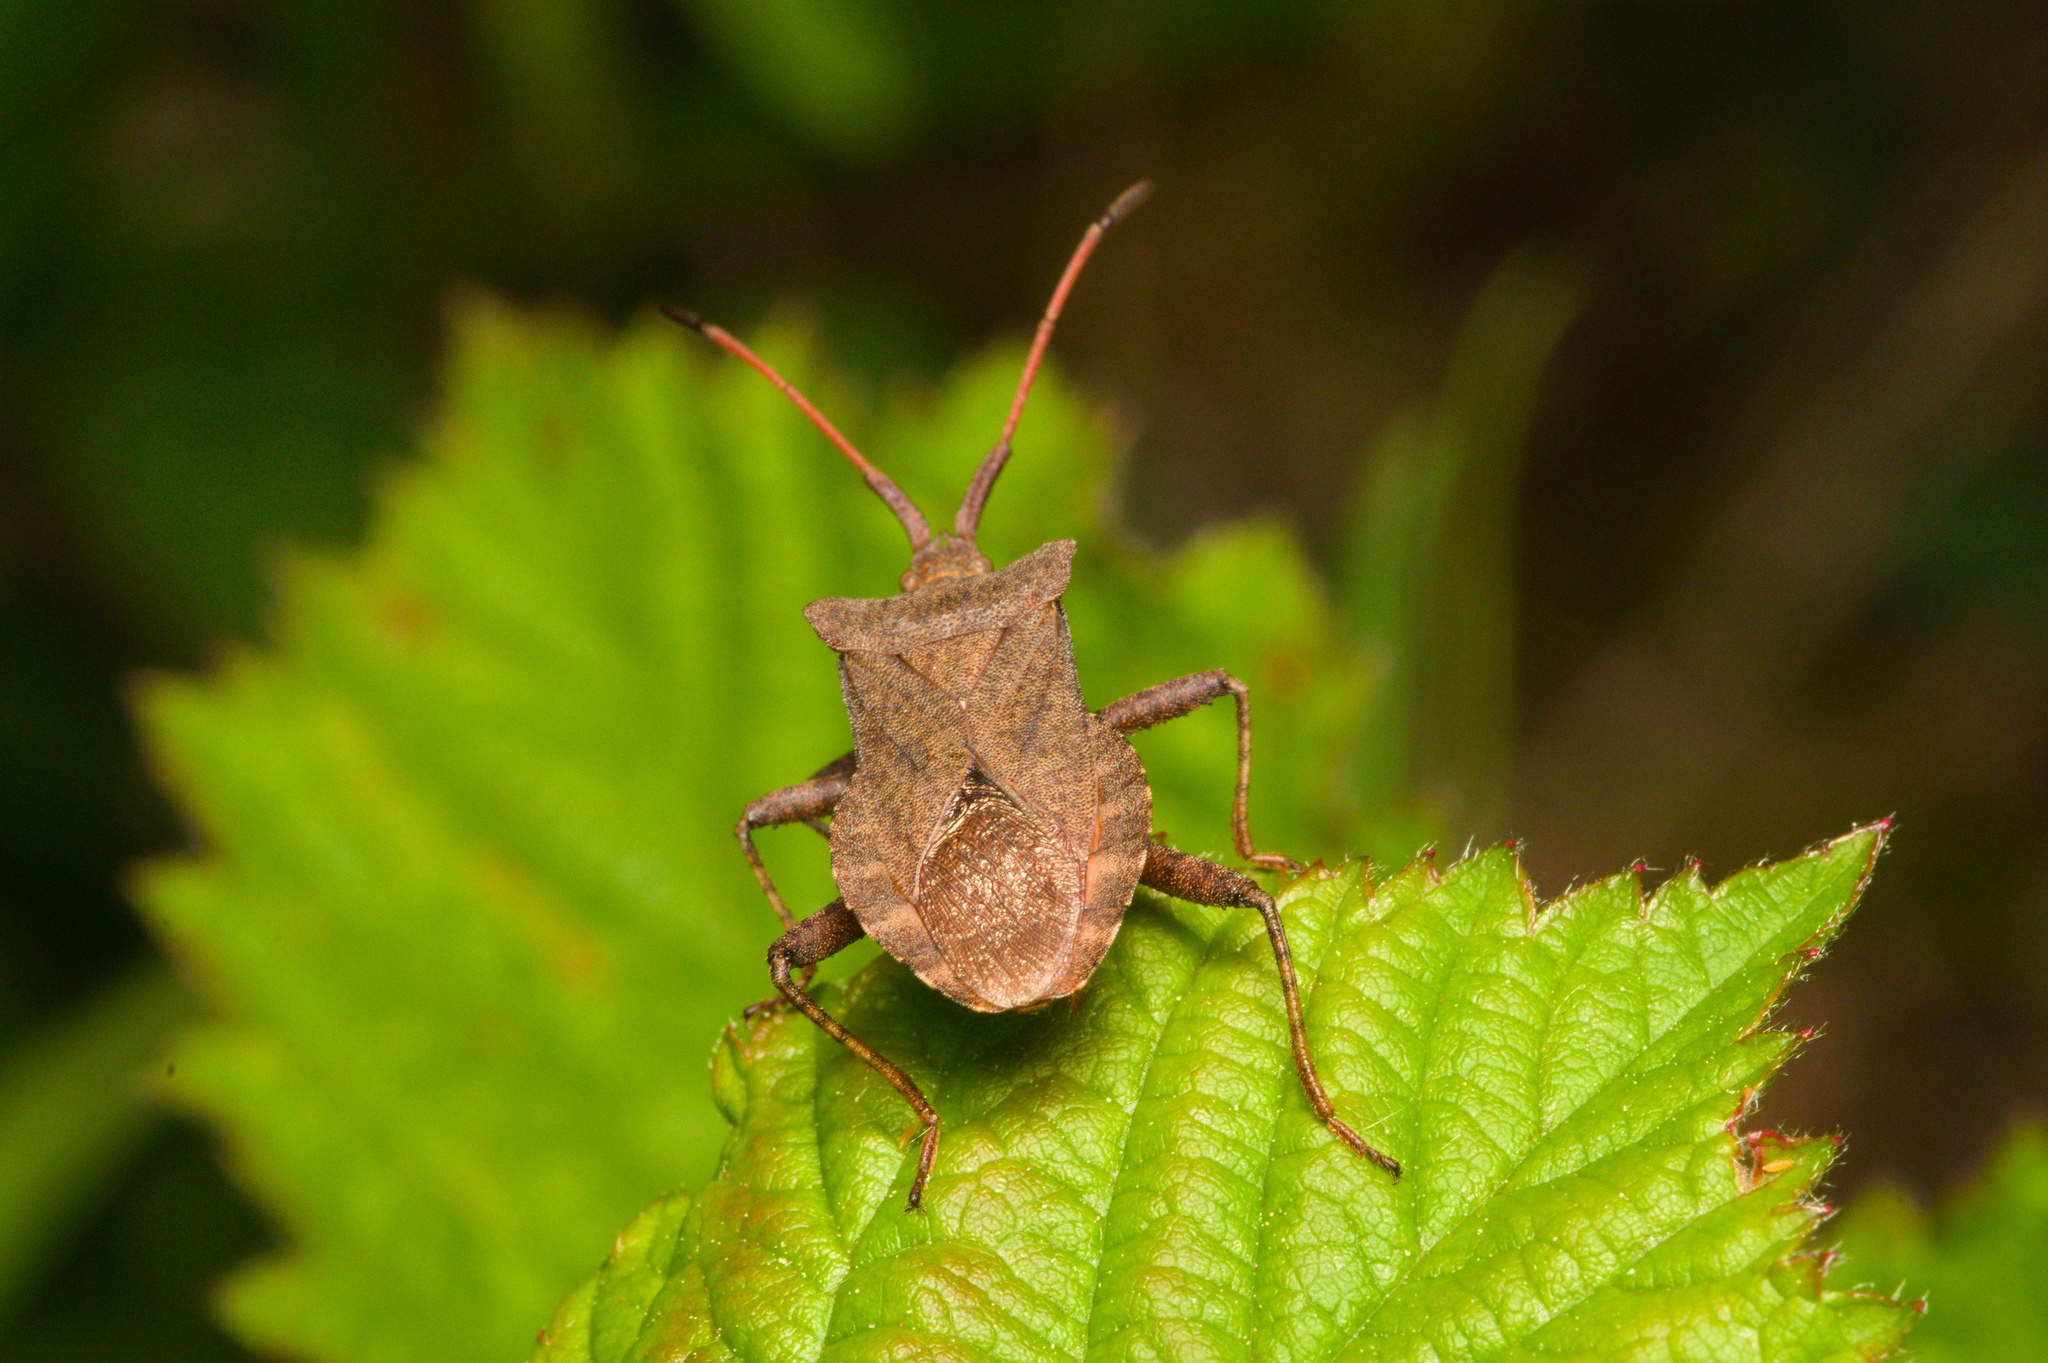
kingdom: Animalia
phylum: Arthropoda
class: Insecta
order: Hemiptera
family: Coreidae
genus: Coreus
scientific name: Coreus marginatus
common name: Dock bug
